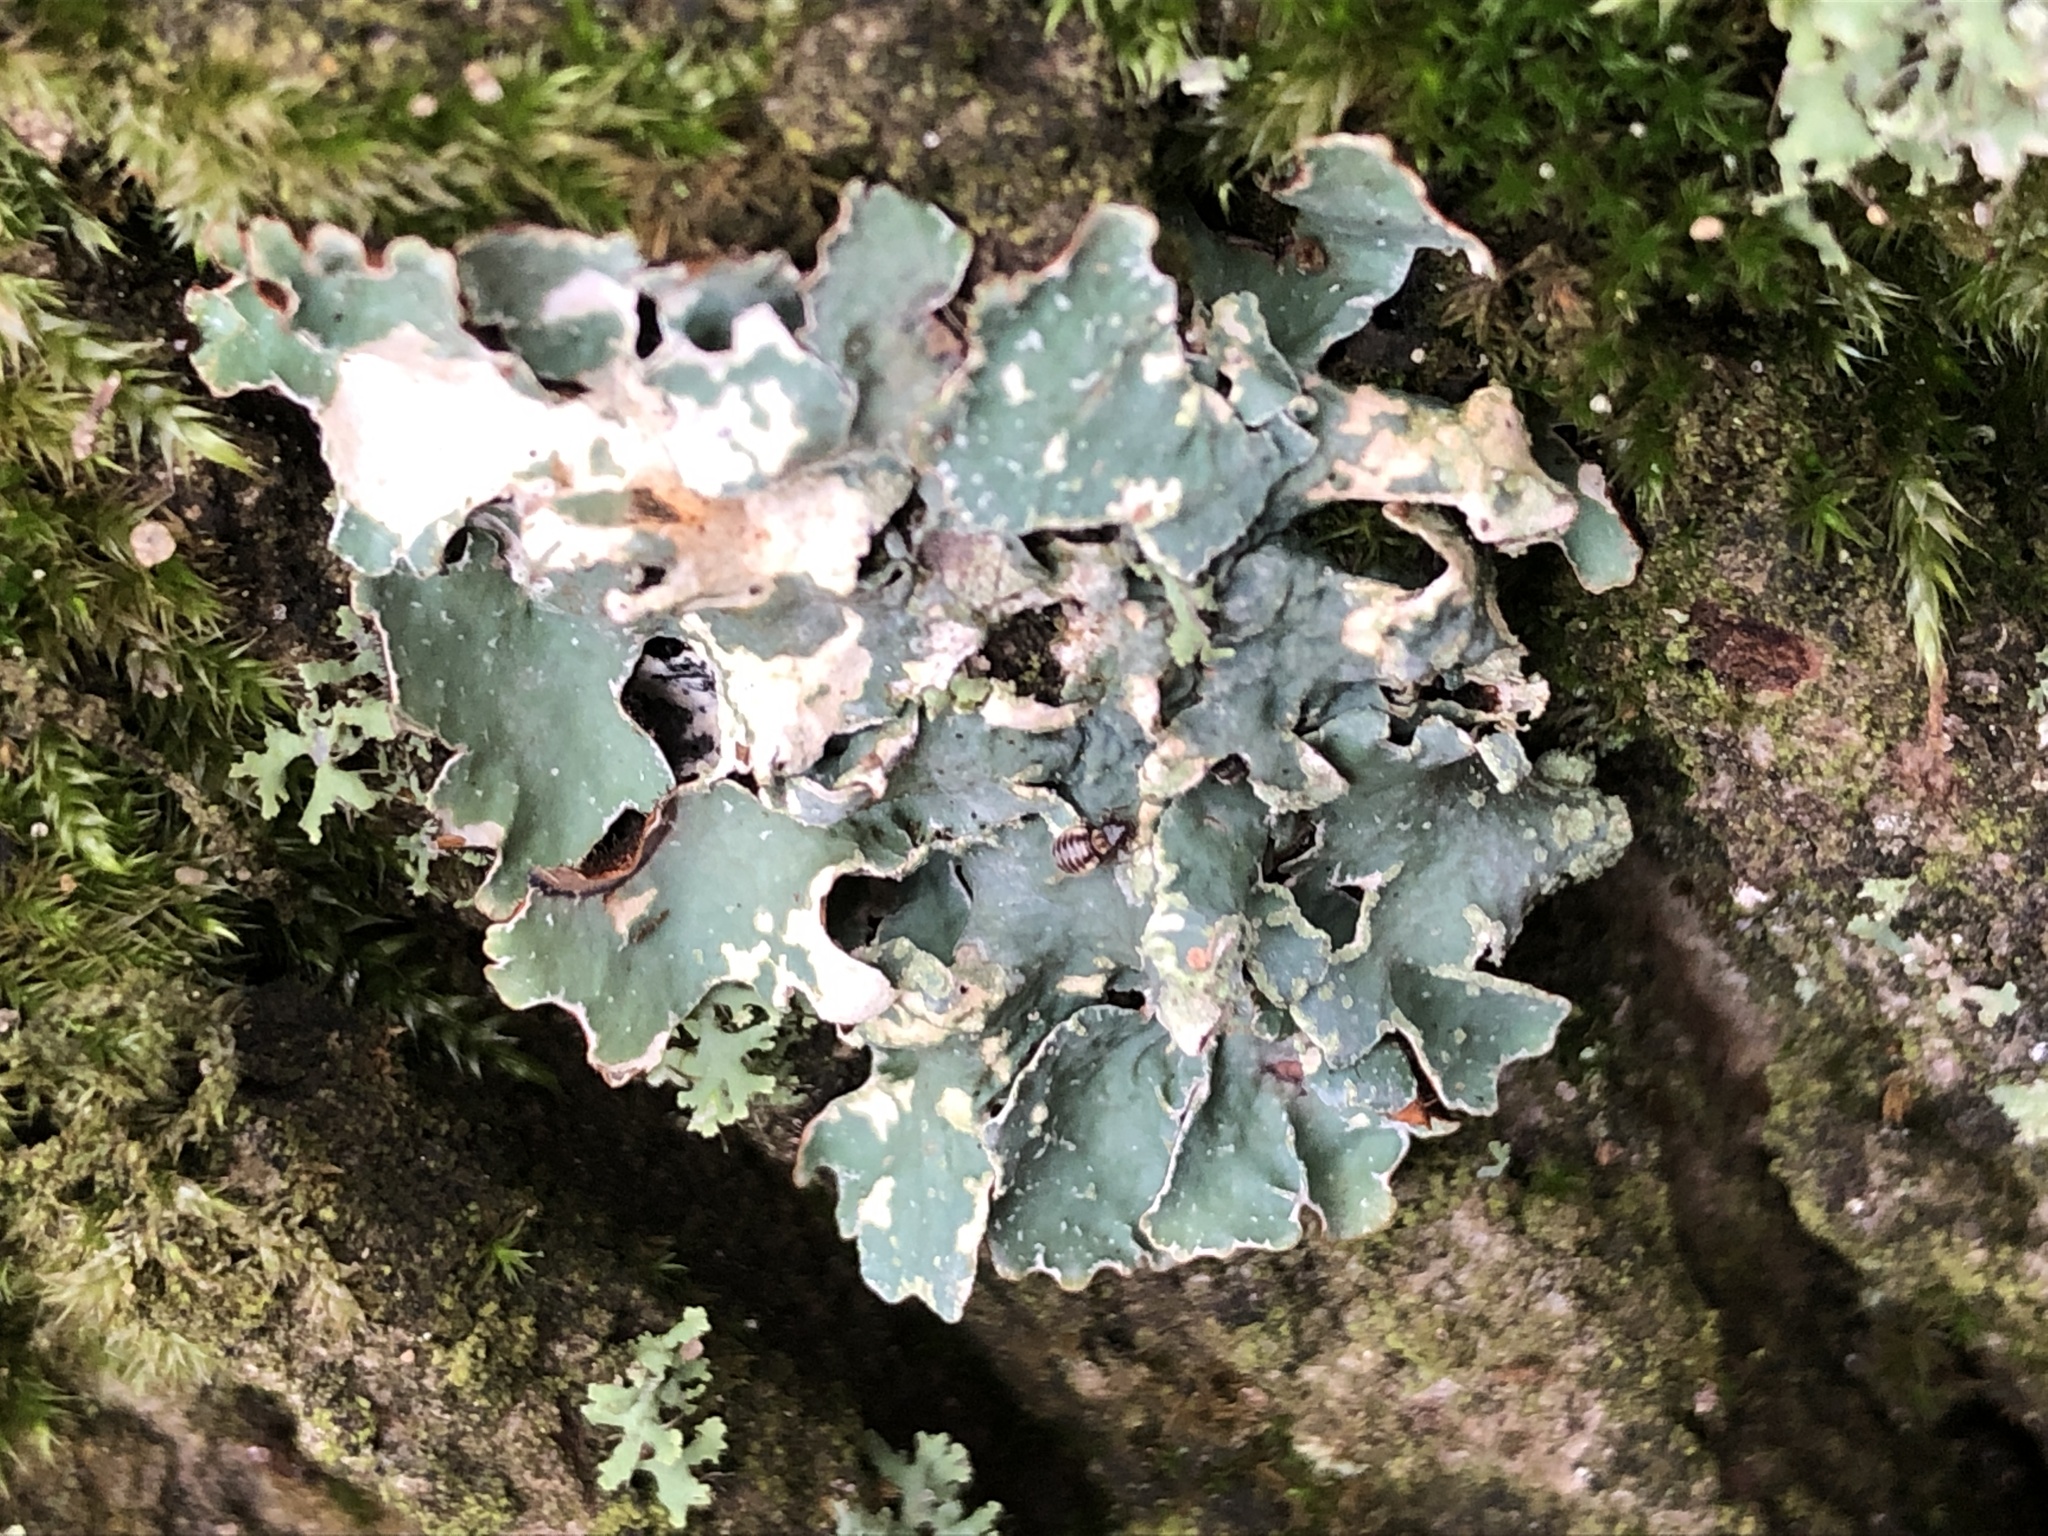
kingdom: Fungi
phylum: Ascomycota
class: Lecanoromycetes
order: Lecanorales
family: Parmeliaceae
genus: Parmelia
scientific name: Parmelia sulcata
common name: Netted shield lichen
